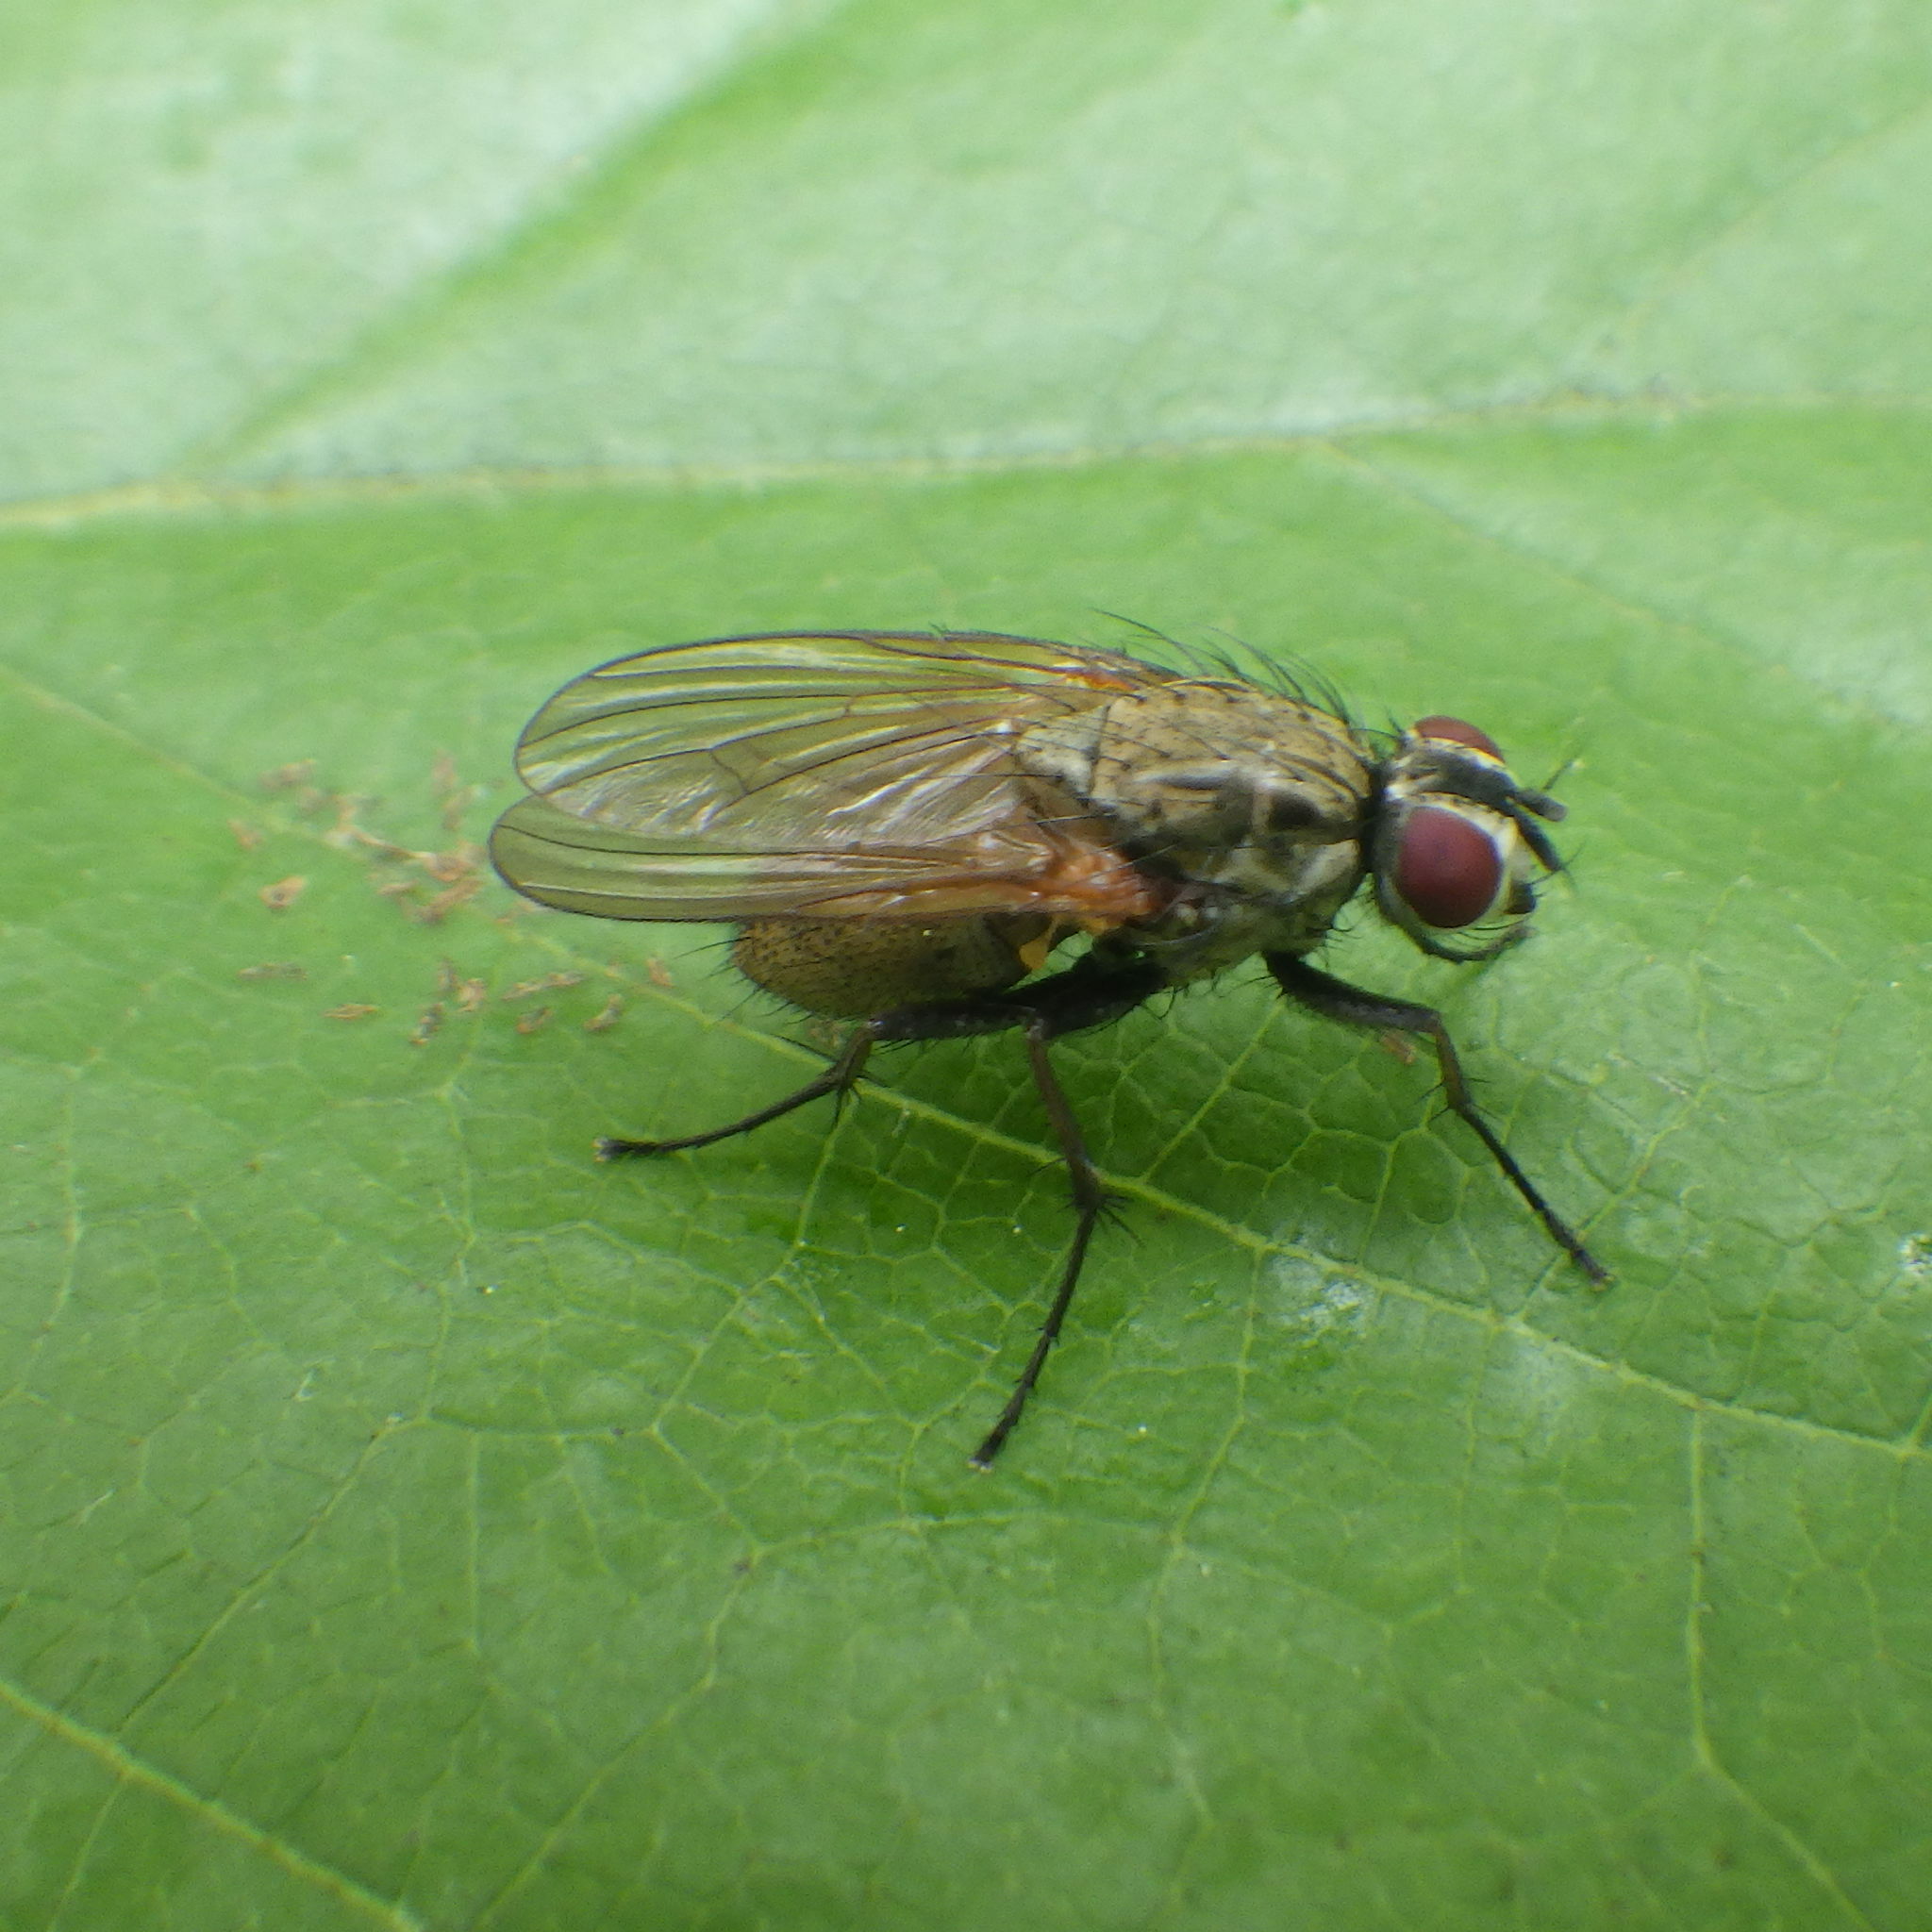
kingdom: Animalia
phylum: Arthropoda
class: Insecta
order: Diptera
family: Anthomyiidae
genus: Hydrophoria
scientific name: Hydrophoria lancifer
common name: Root-maggot fly
